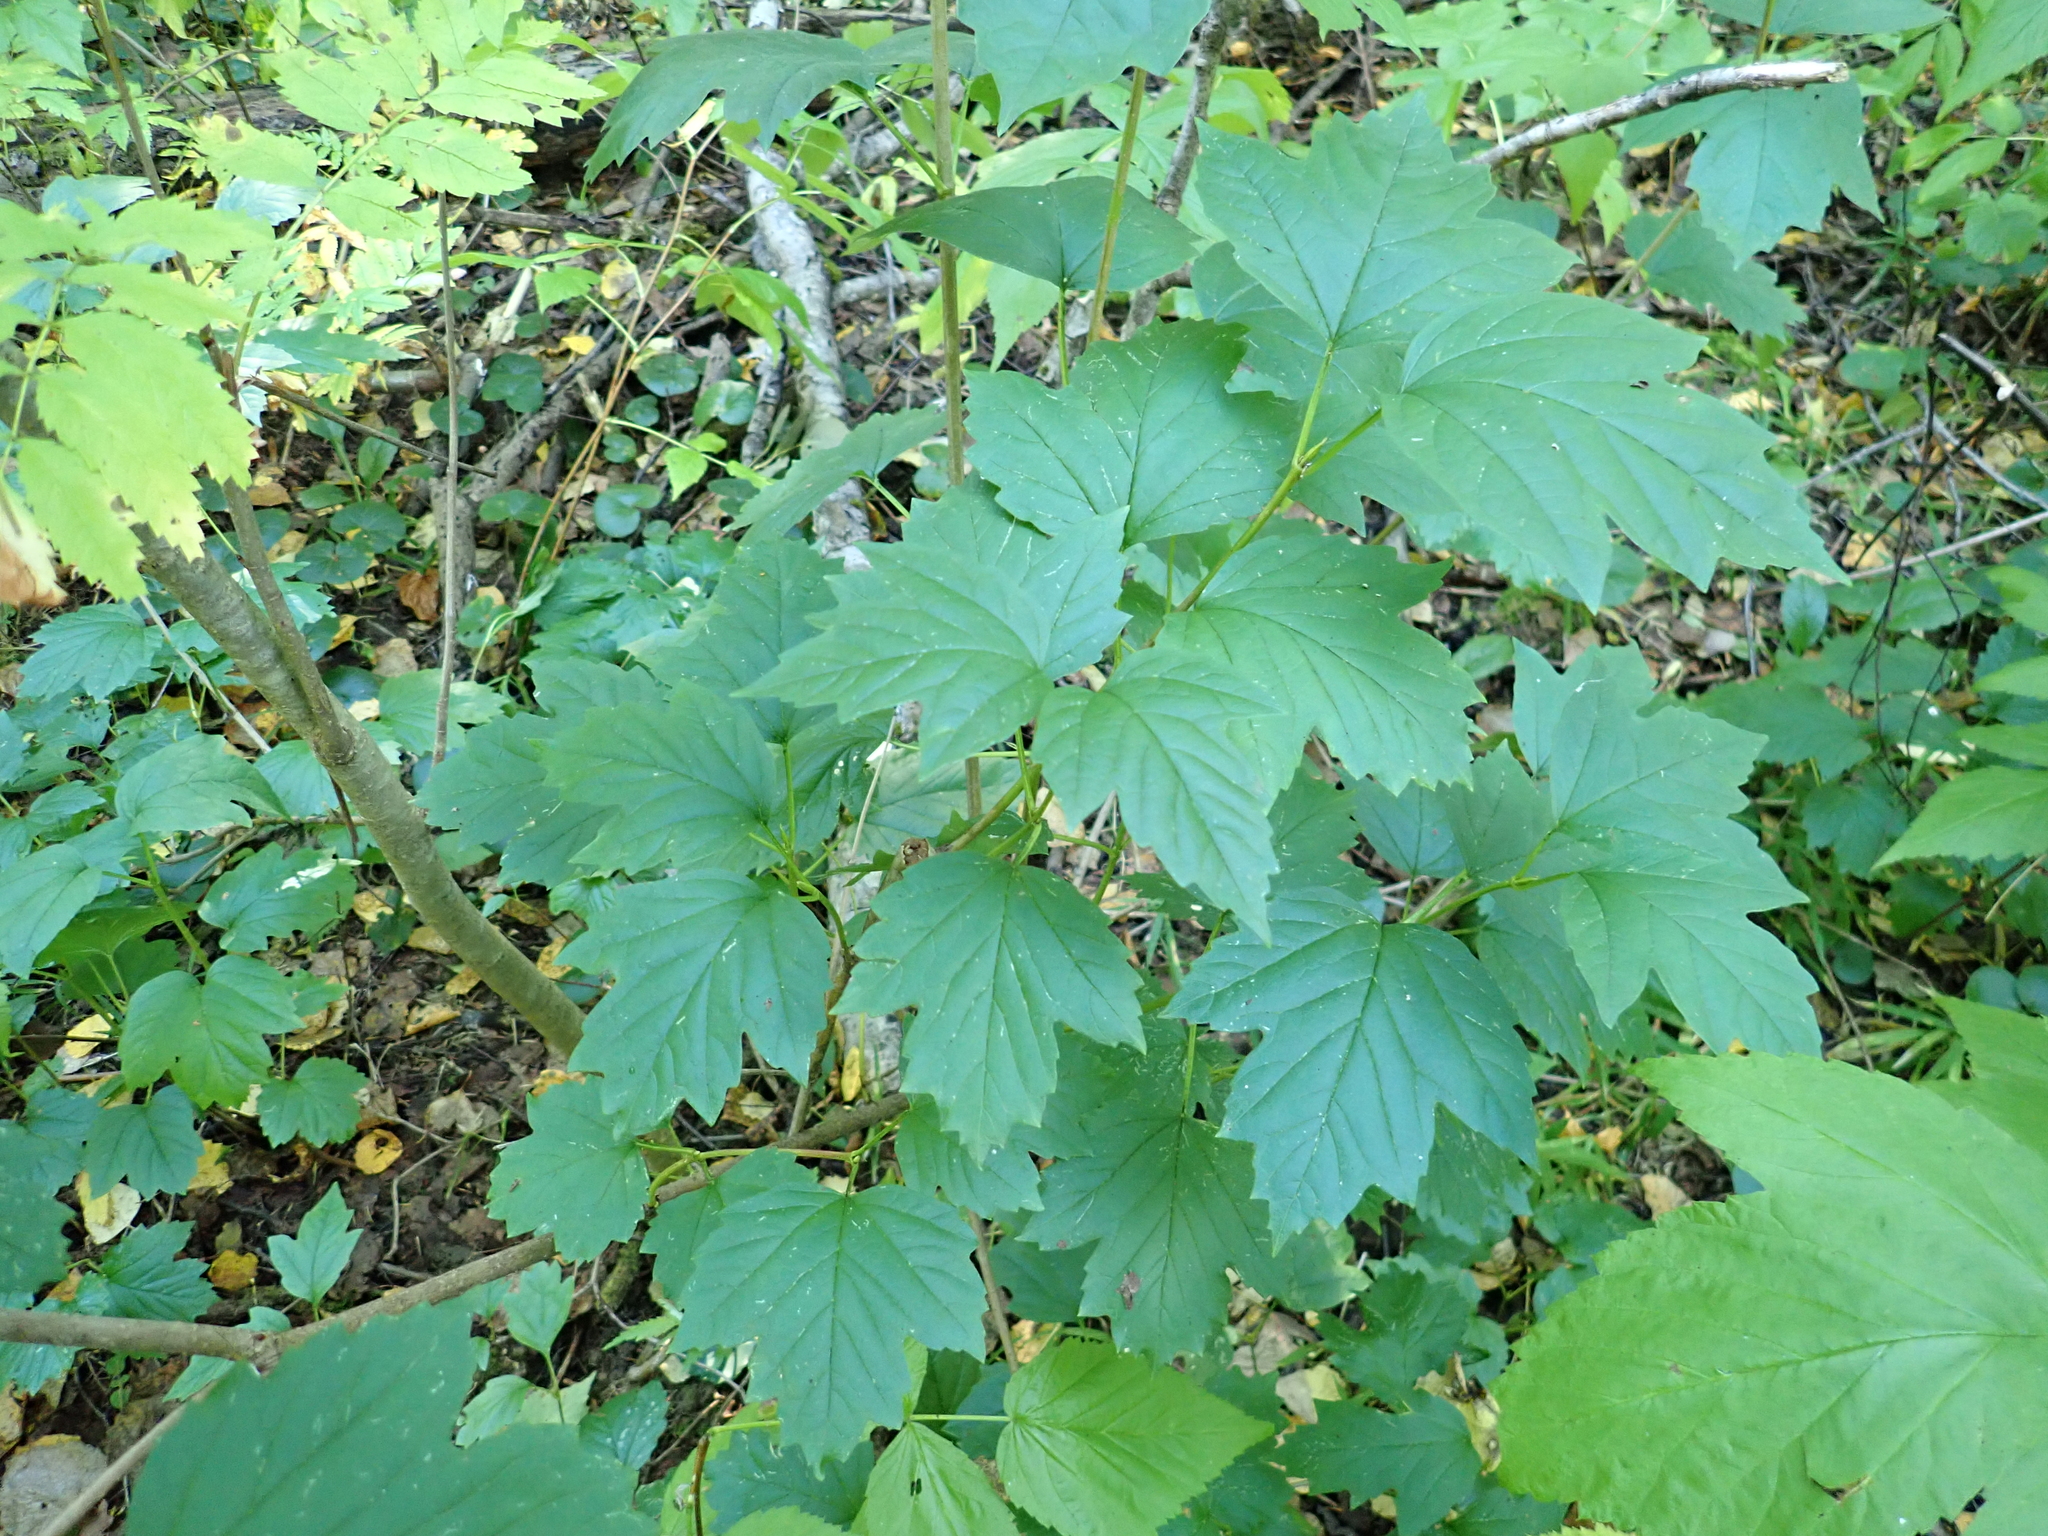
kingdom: Plantae
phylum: Tracheophyta
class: Magnoliopsida
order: Dipsacales
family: Viburnaceae
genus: Viburnum
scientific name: Viburnum opulus
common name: Guelder-rose
